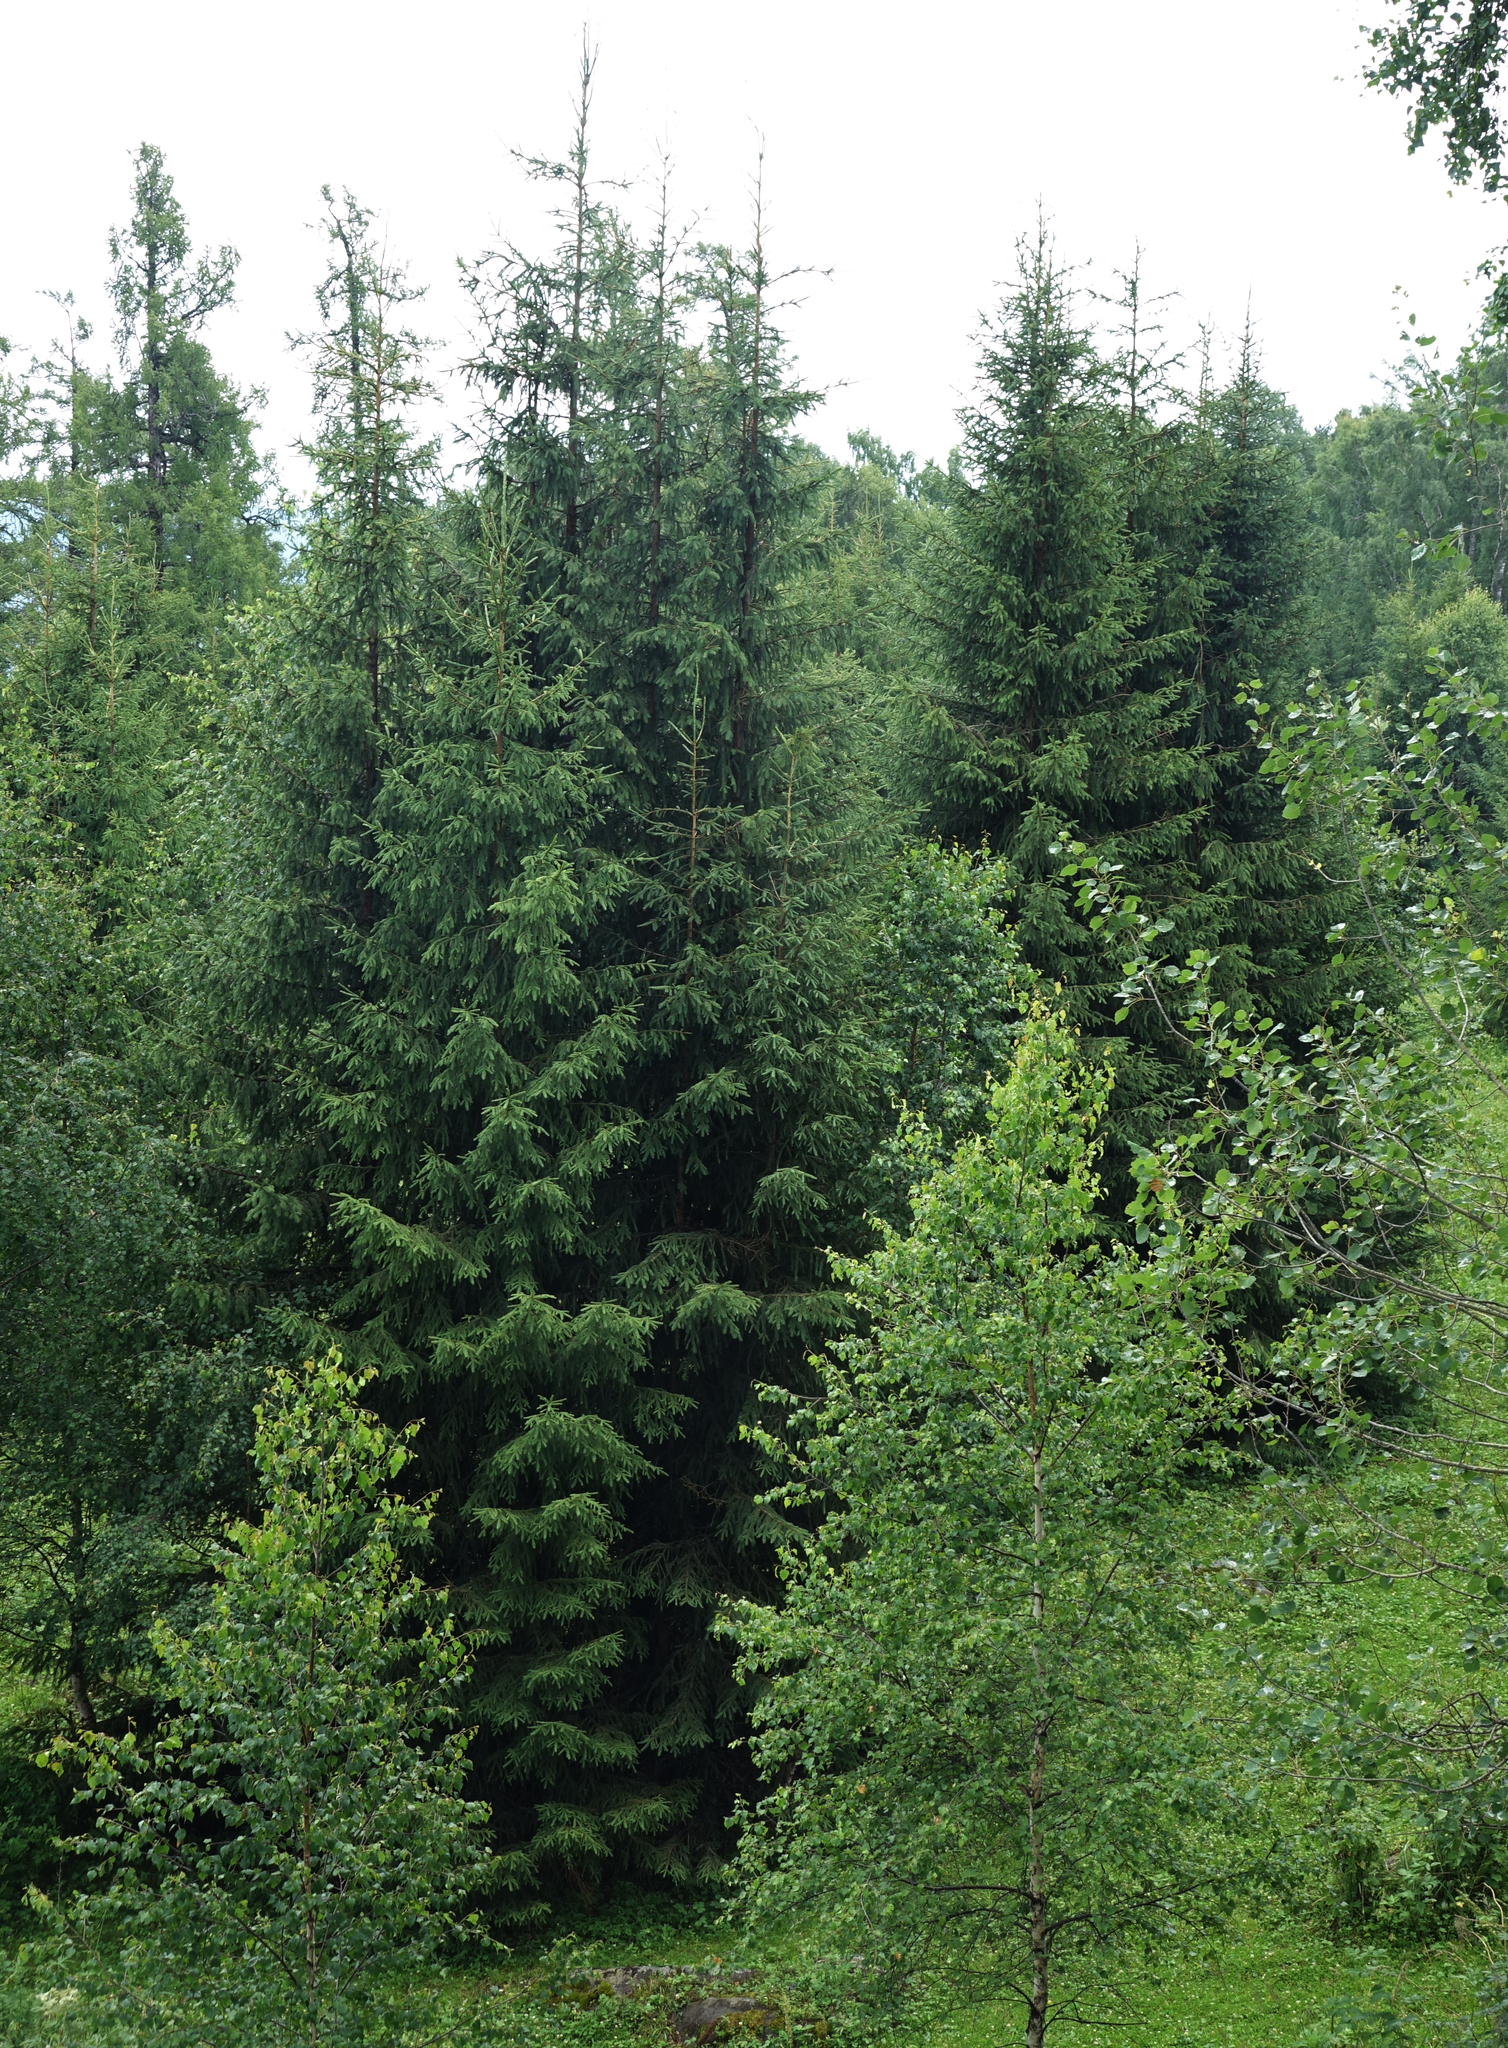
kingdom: Plantae
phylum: Tracheophyta
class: Pinopsida
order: Pinales
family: Pinaceae
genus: Picea
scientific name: Picea obovata
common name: Siberian spruce
